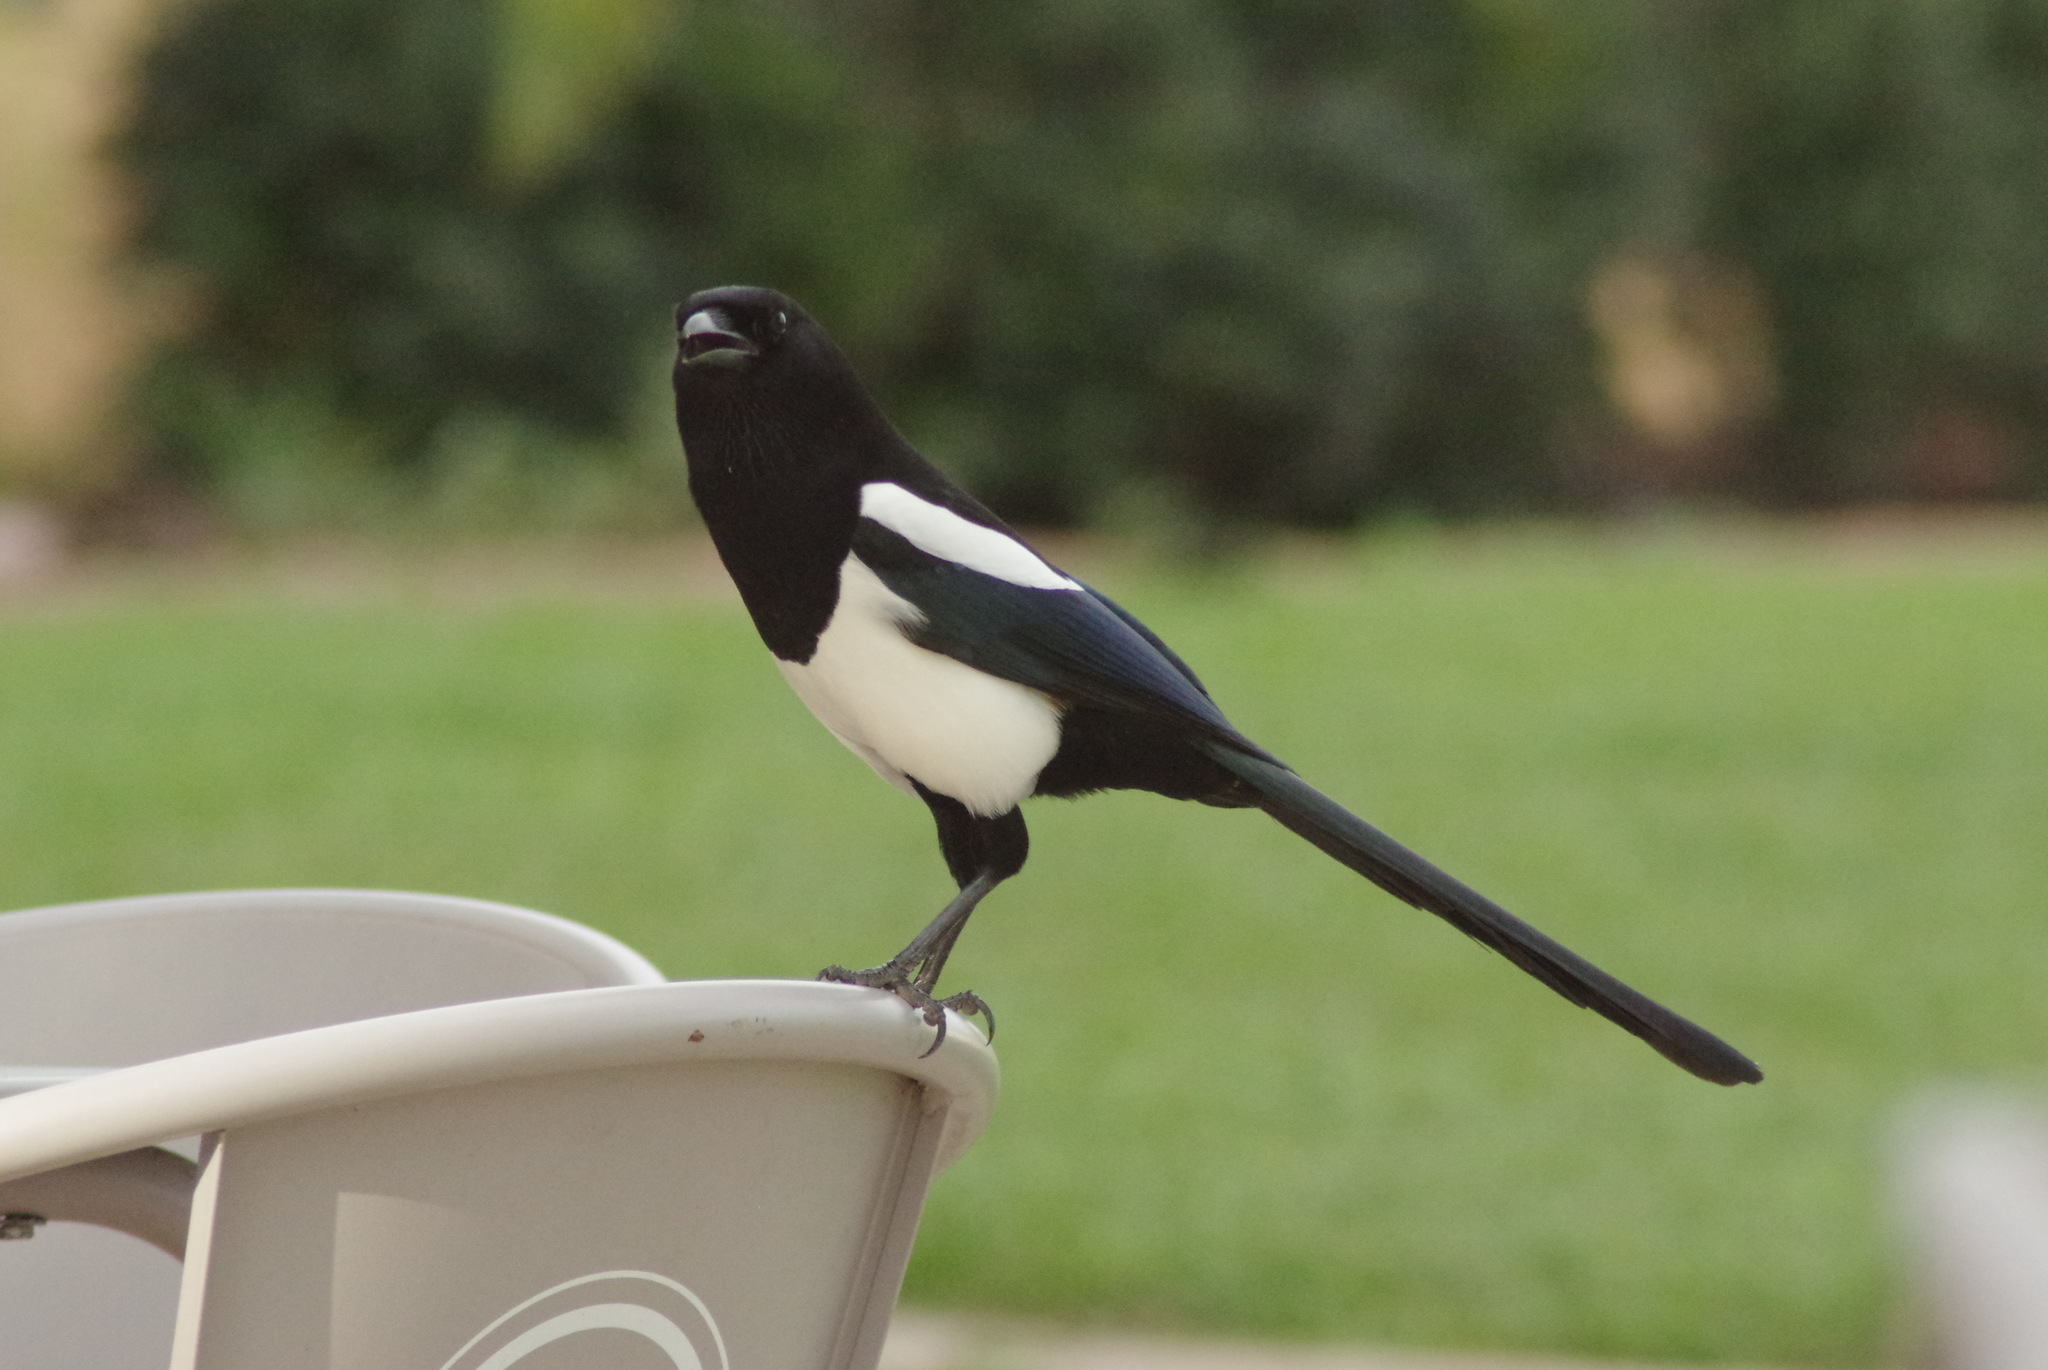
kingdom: Animalia
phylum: Chordata
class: Aves
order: Passeriformes
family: Corvidae
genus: Pica
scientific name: Pica pica
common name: Eurasian magpie
